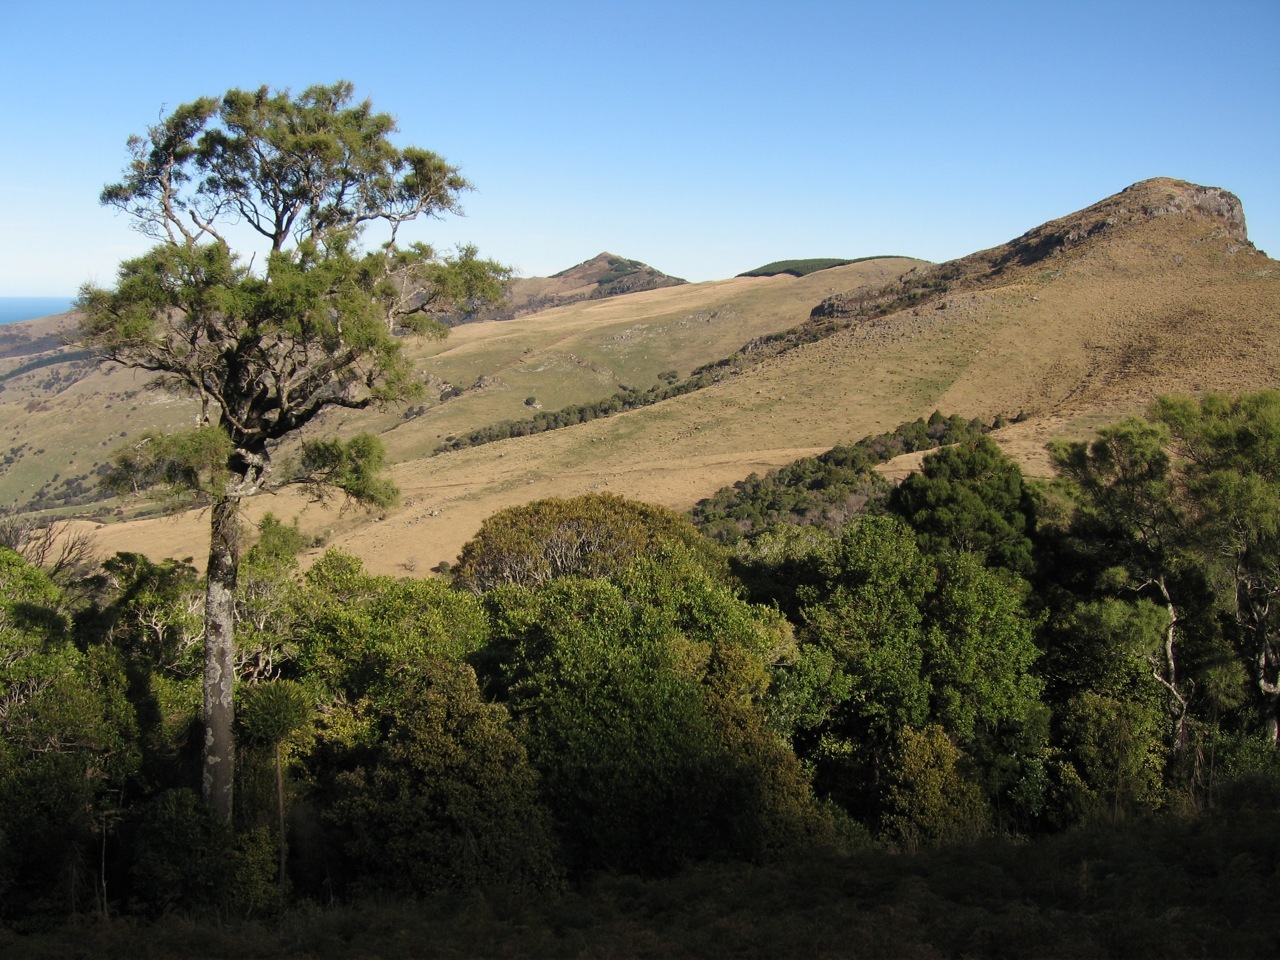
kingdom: Plantae
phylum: Tracheophyta
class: Magnoliopsida
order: Fabales
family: Fabaceae
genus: Sophora
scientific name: Sophora microphylla
